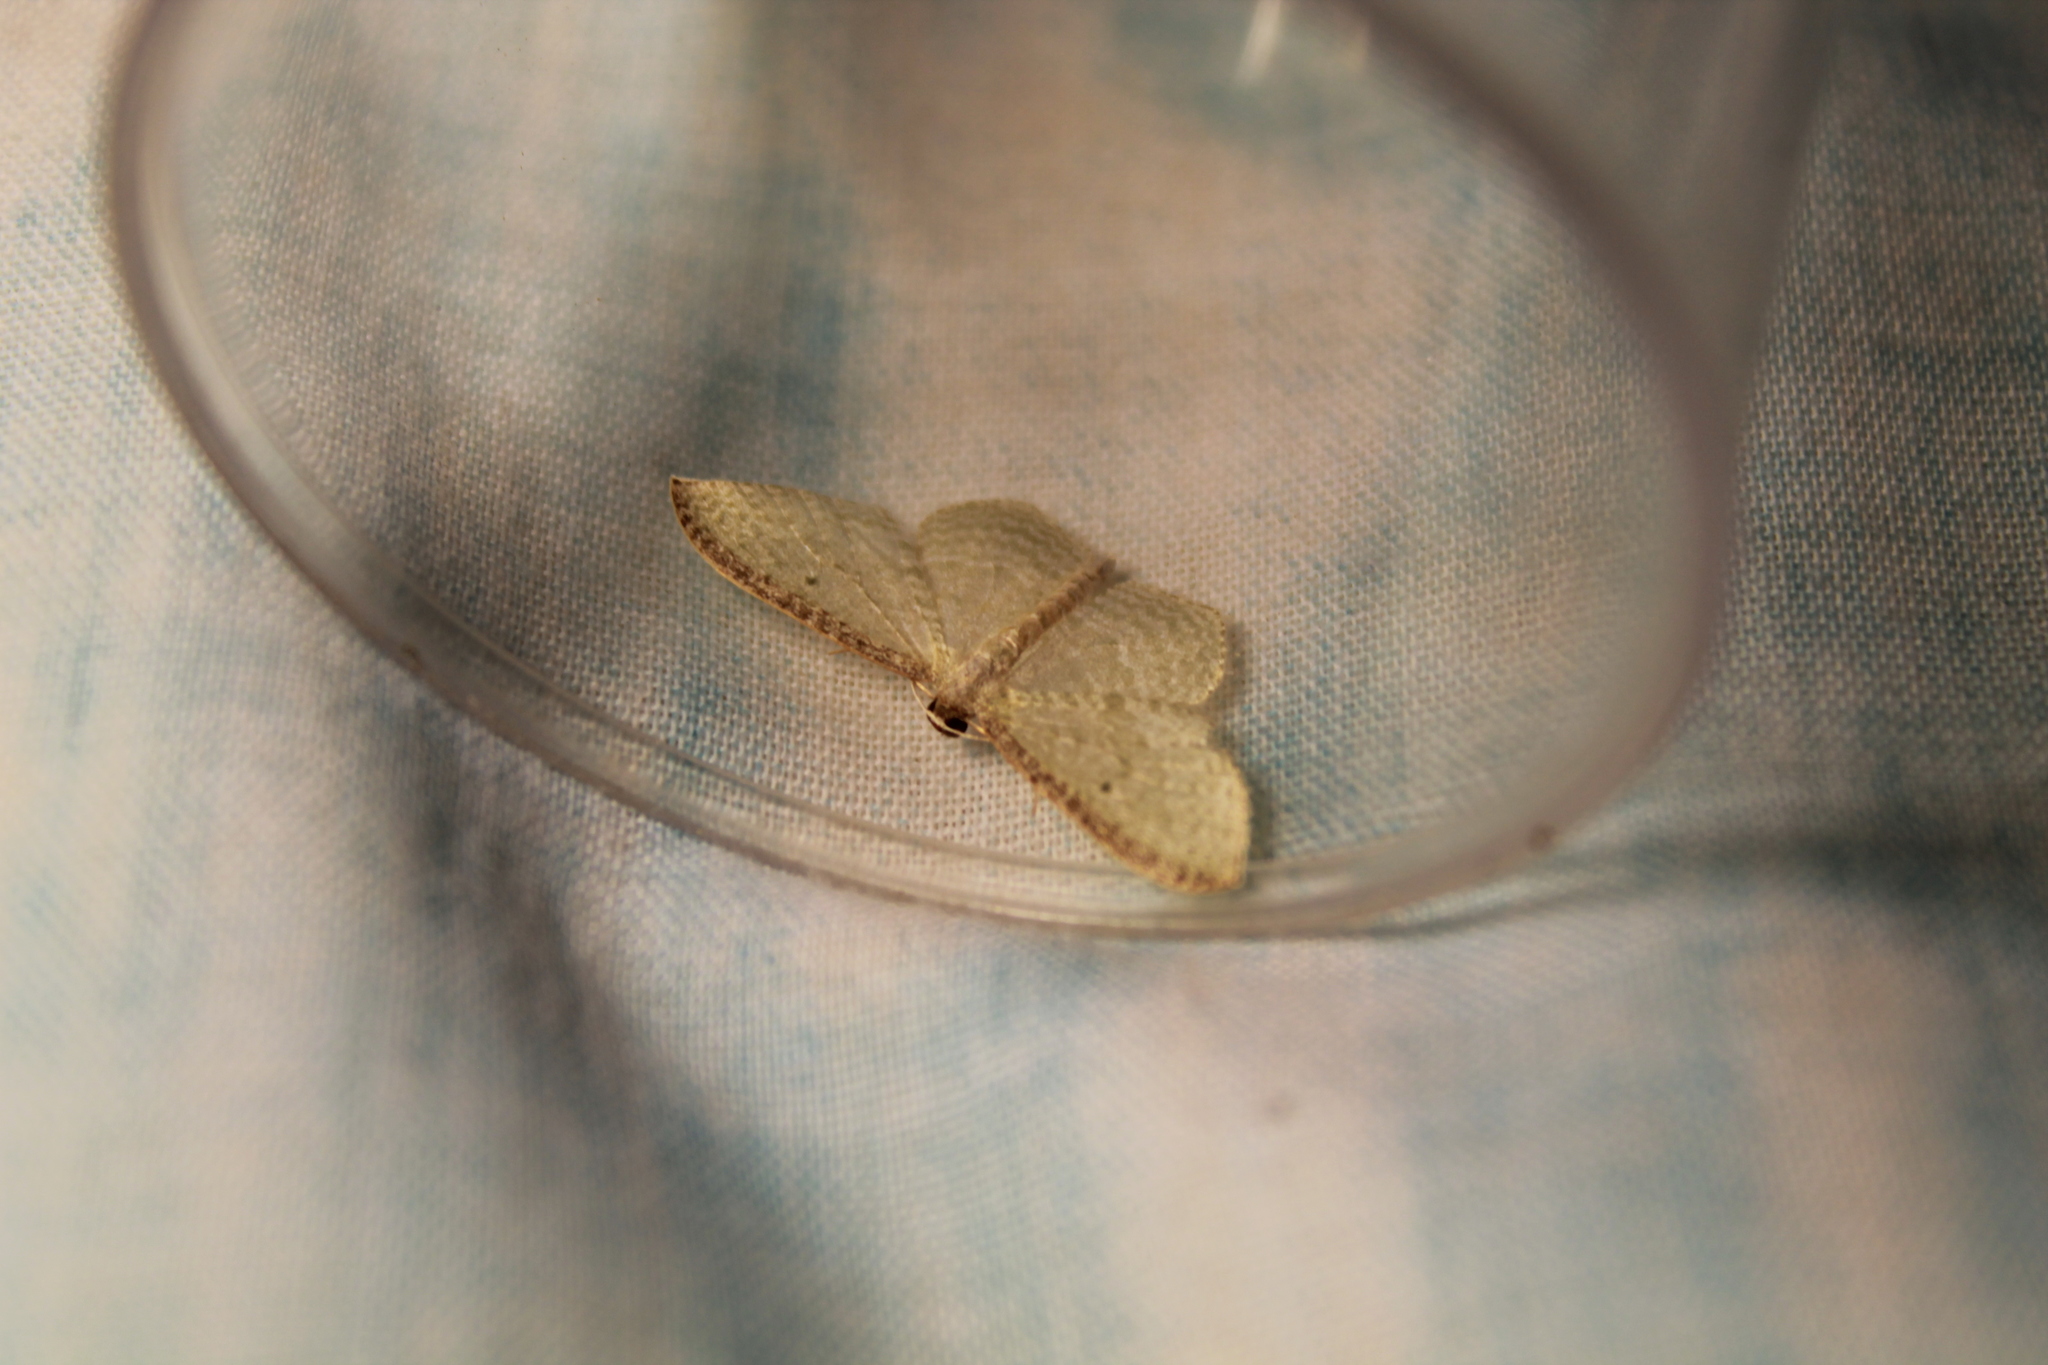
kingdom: Animalia
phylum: Arthropoda
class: Insecta
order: Lepidoptera
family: Geometridae
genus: Poecilasthena
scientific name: Poecilasthena pulchraria
